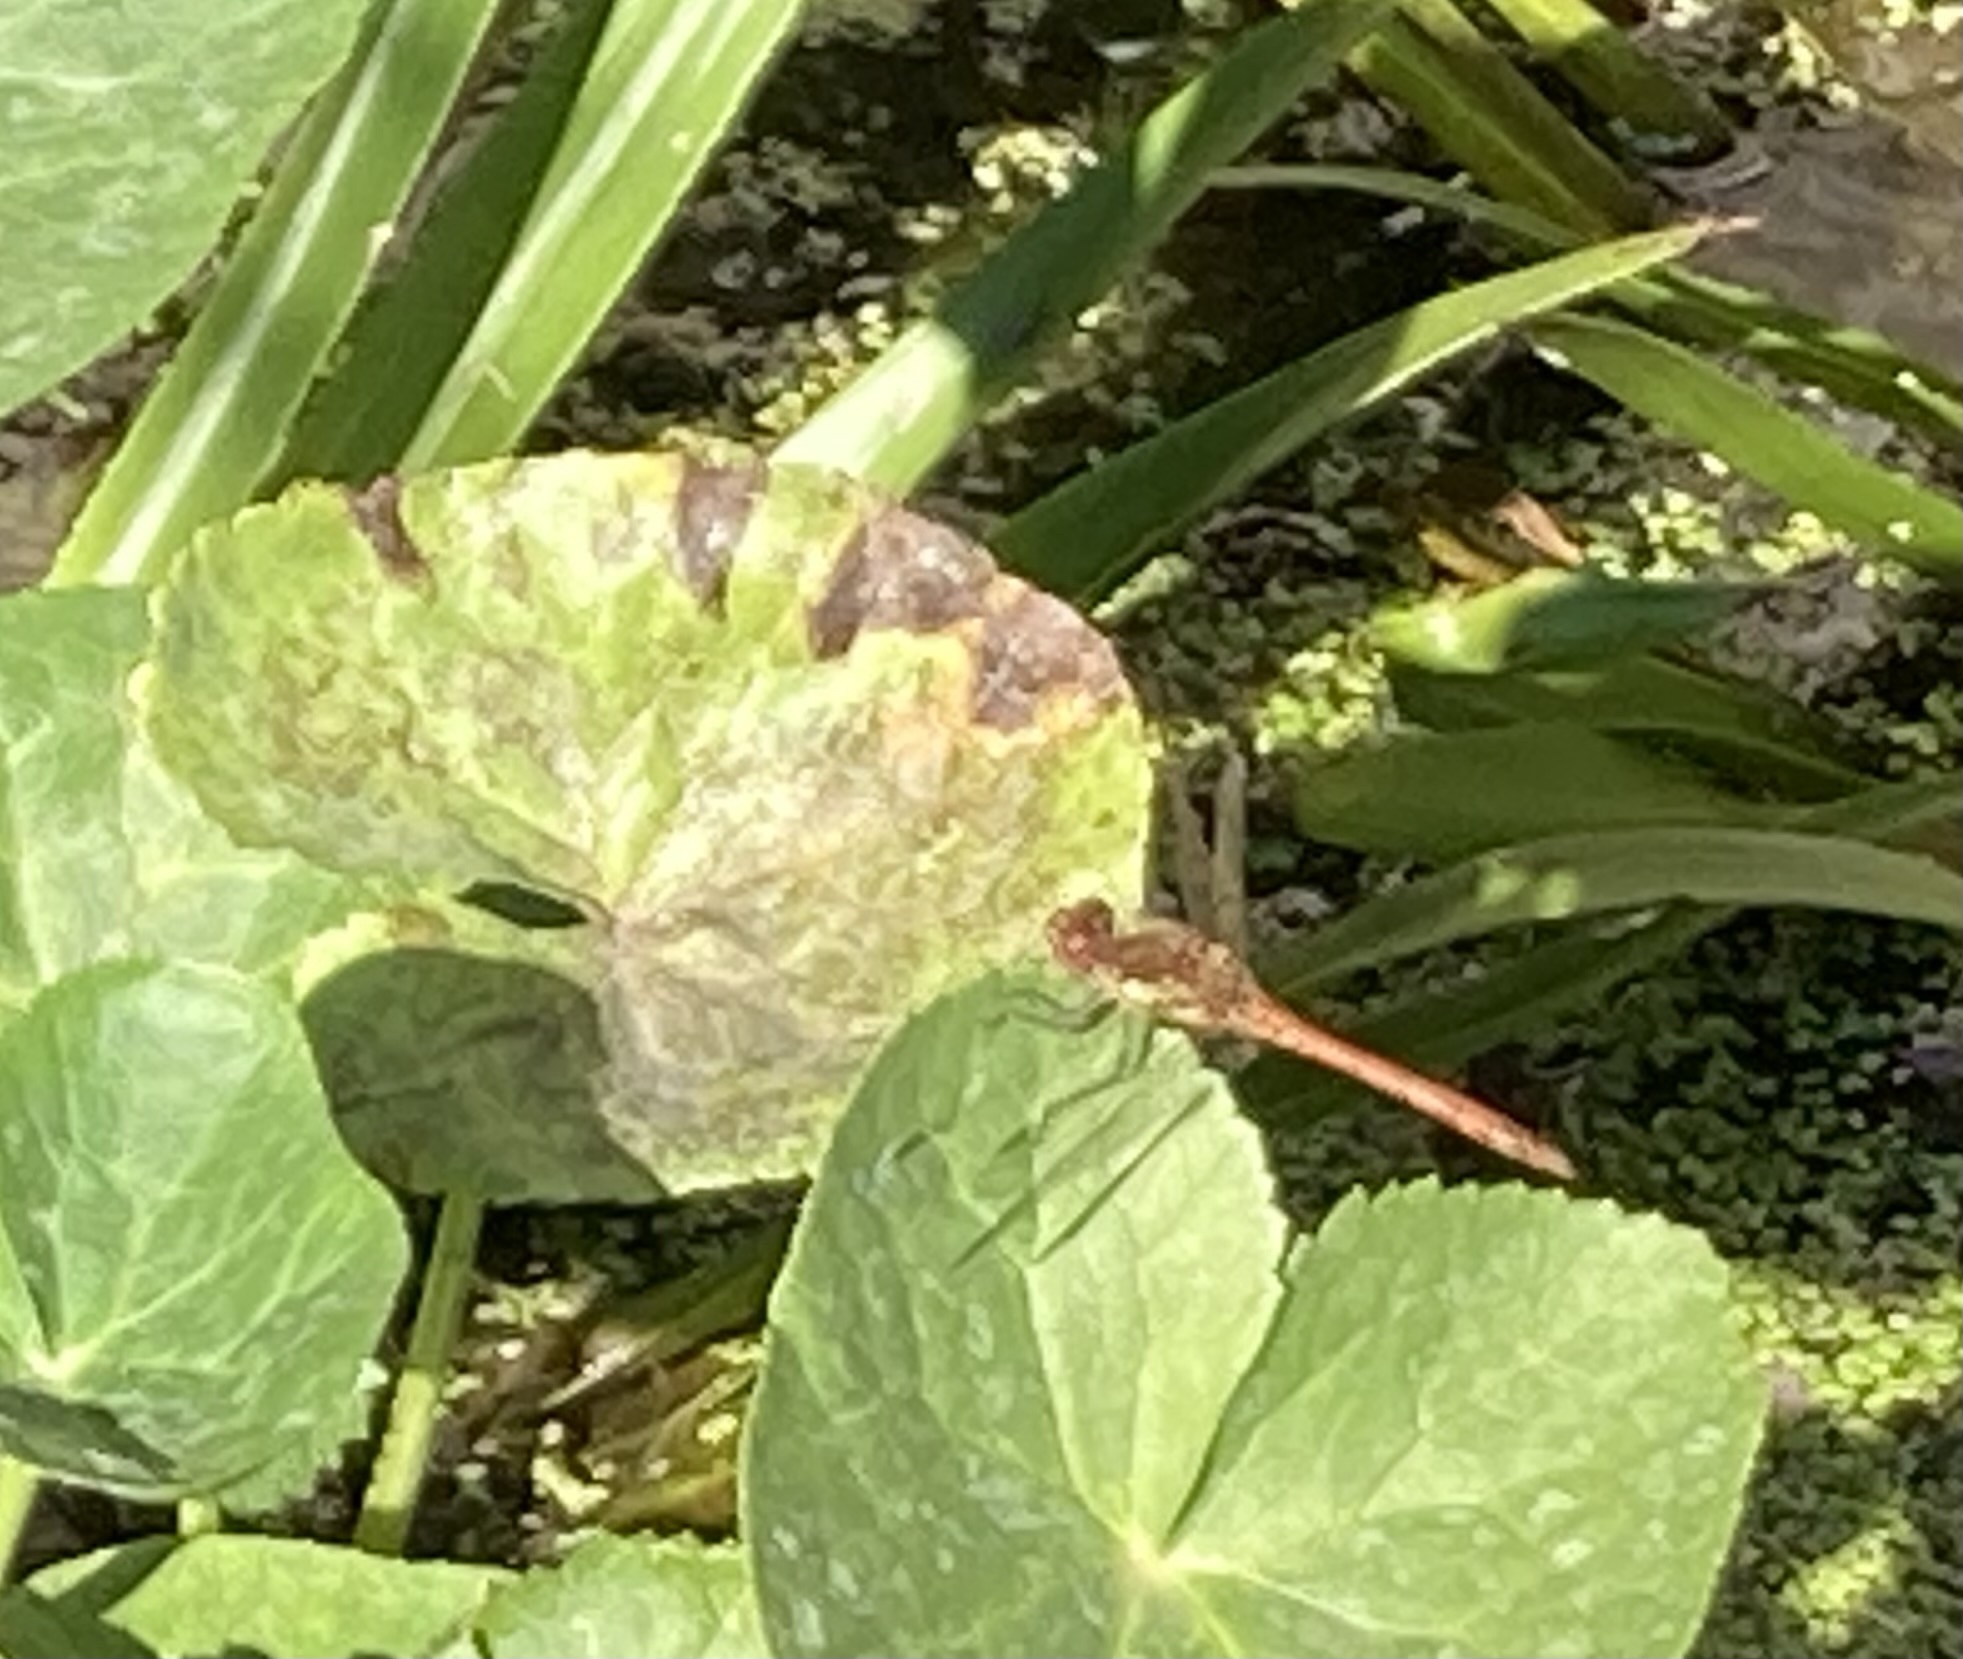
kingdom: Animalia
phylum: Arthropoda
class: Insecta
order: Odonata
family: Libellulidae
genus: Sympetrum
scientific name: Sympetrum striolatum
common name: Common darter
